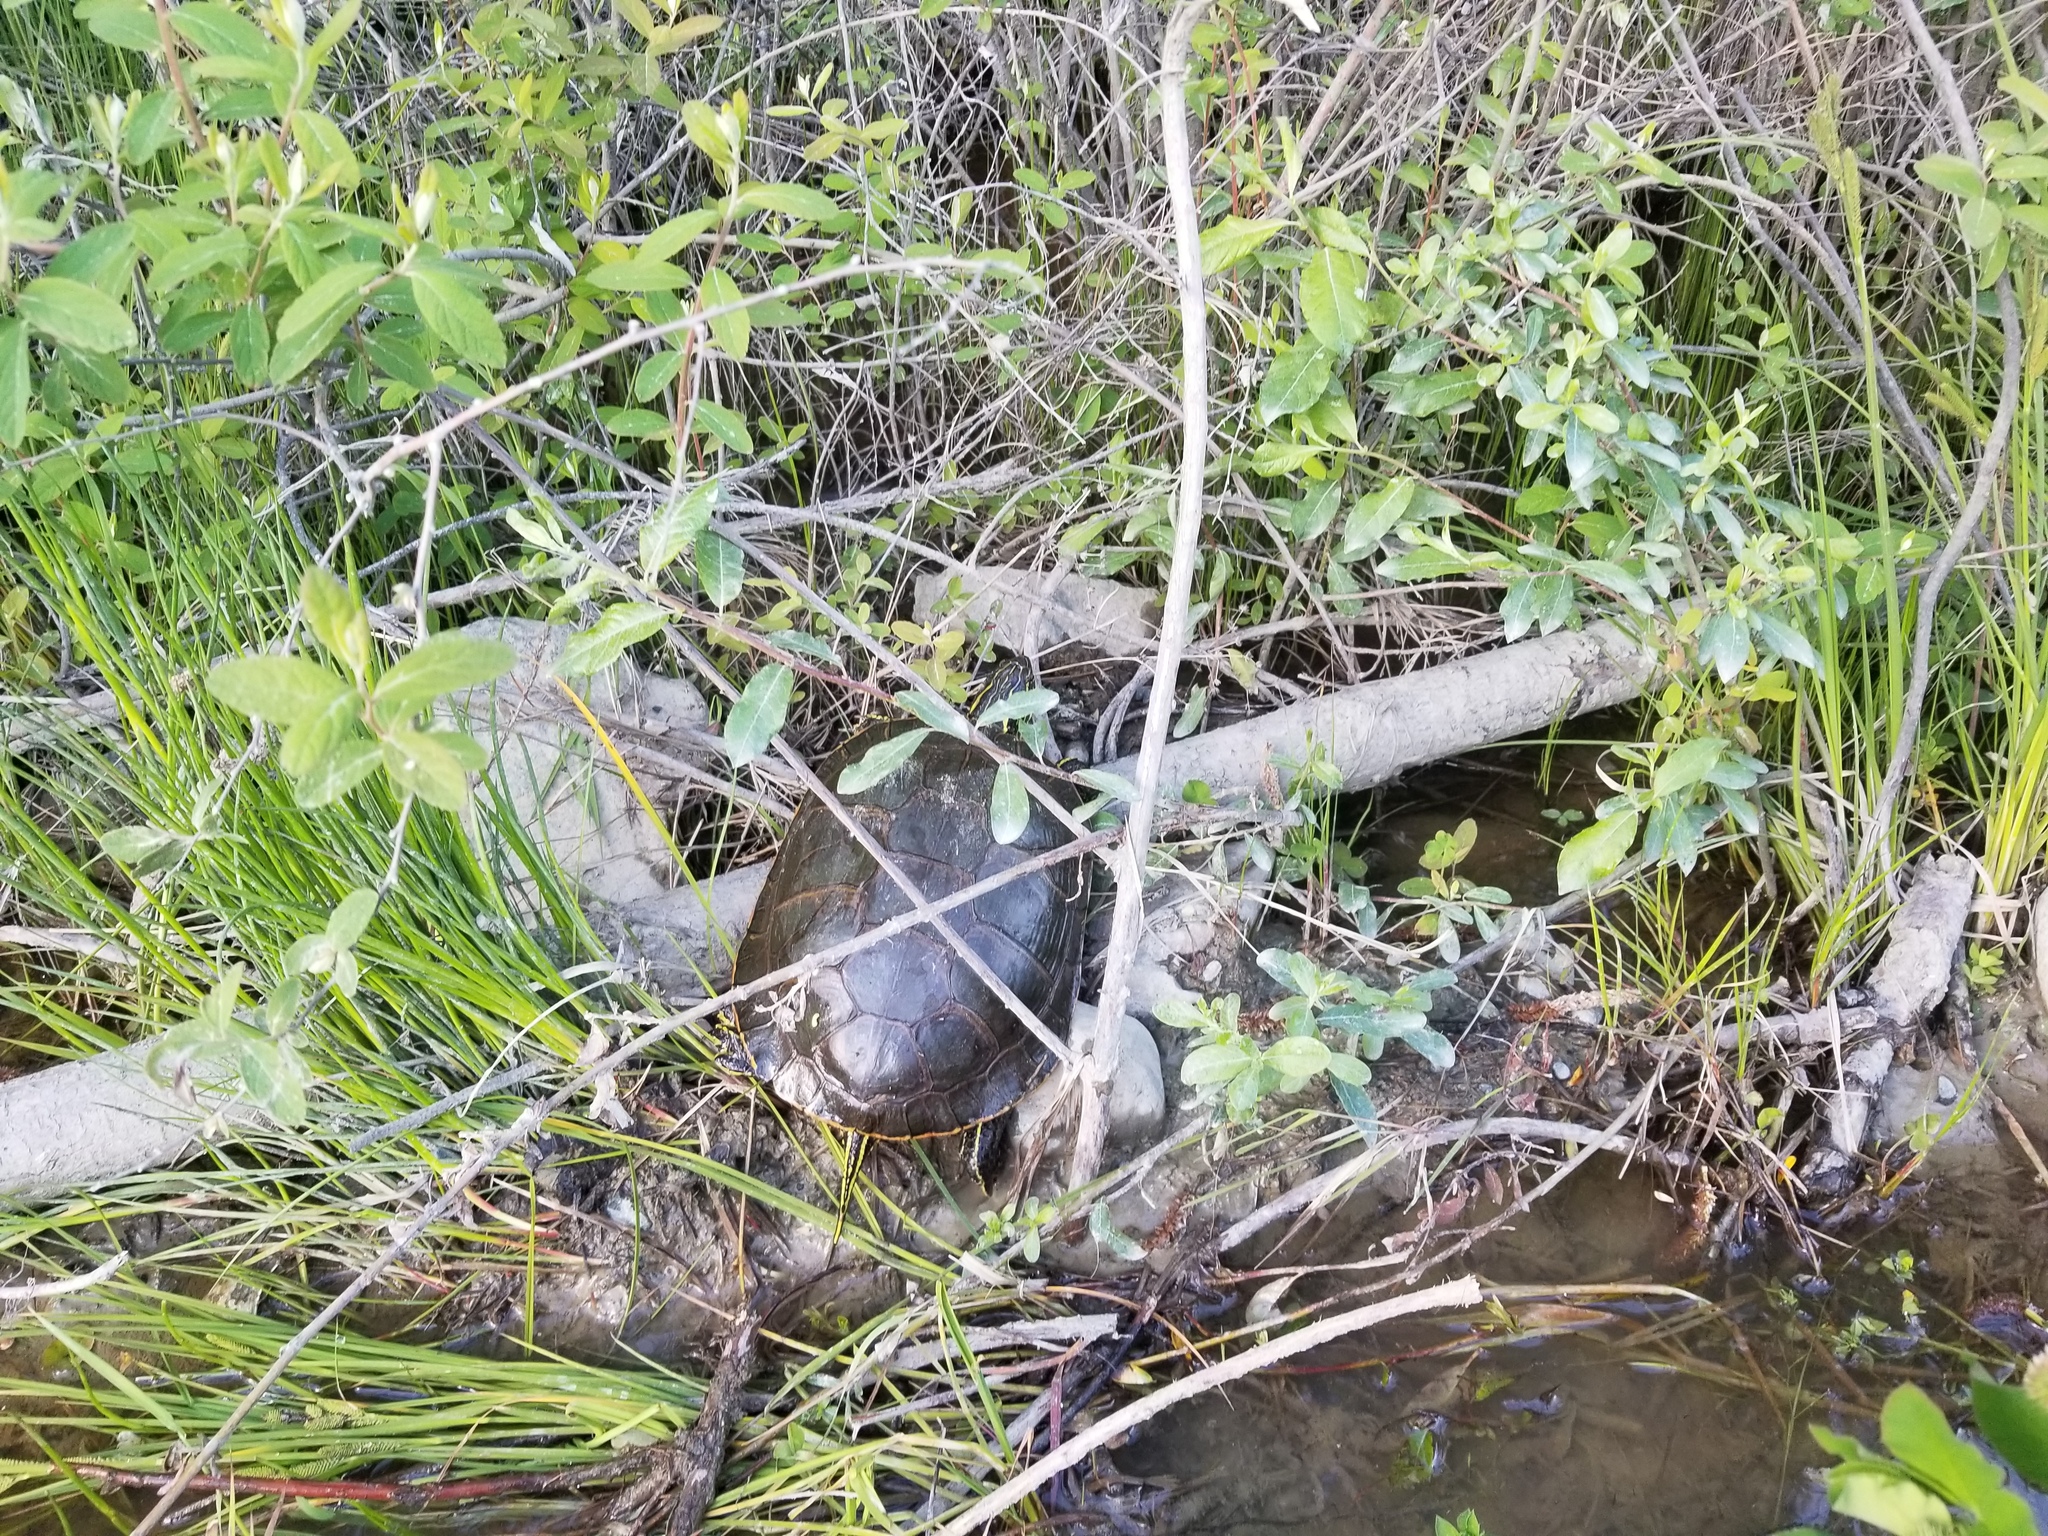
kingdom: Animalia
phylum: Chordata
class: Testudines
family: Emydidae
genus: Chrysemys
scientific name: Chrysemys picta
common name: Painted turtle
